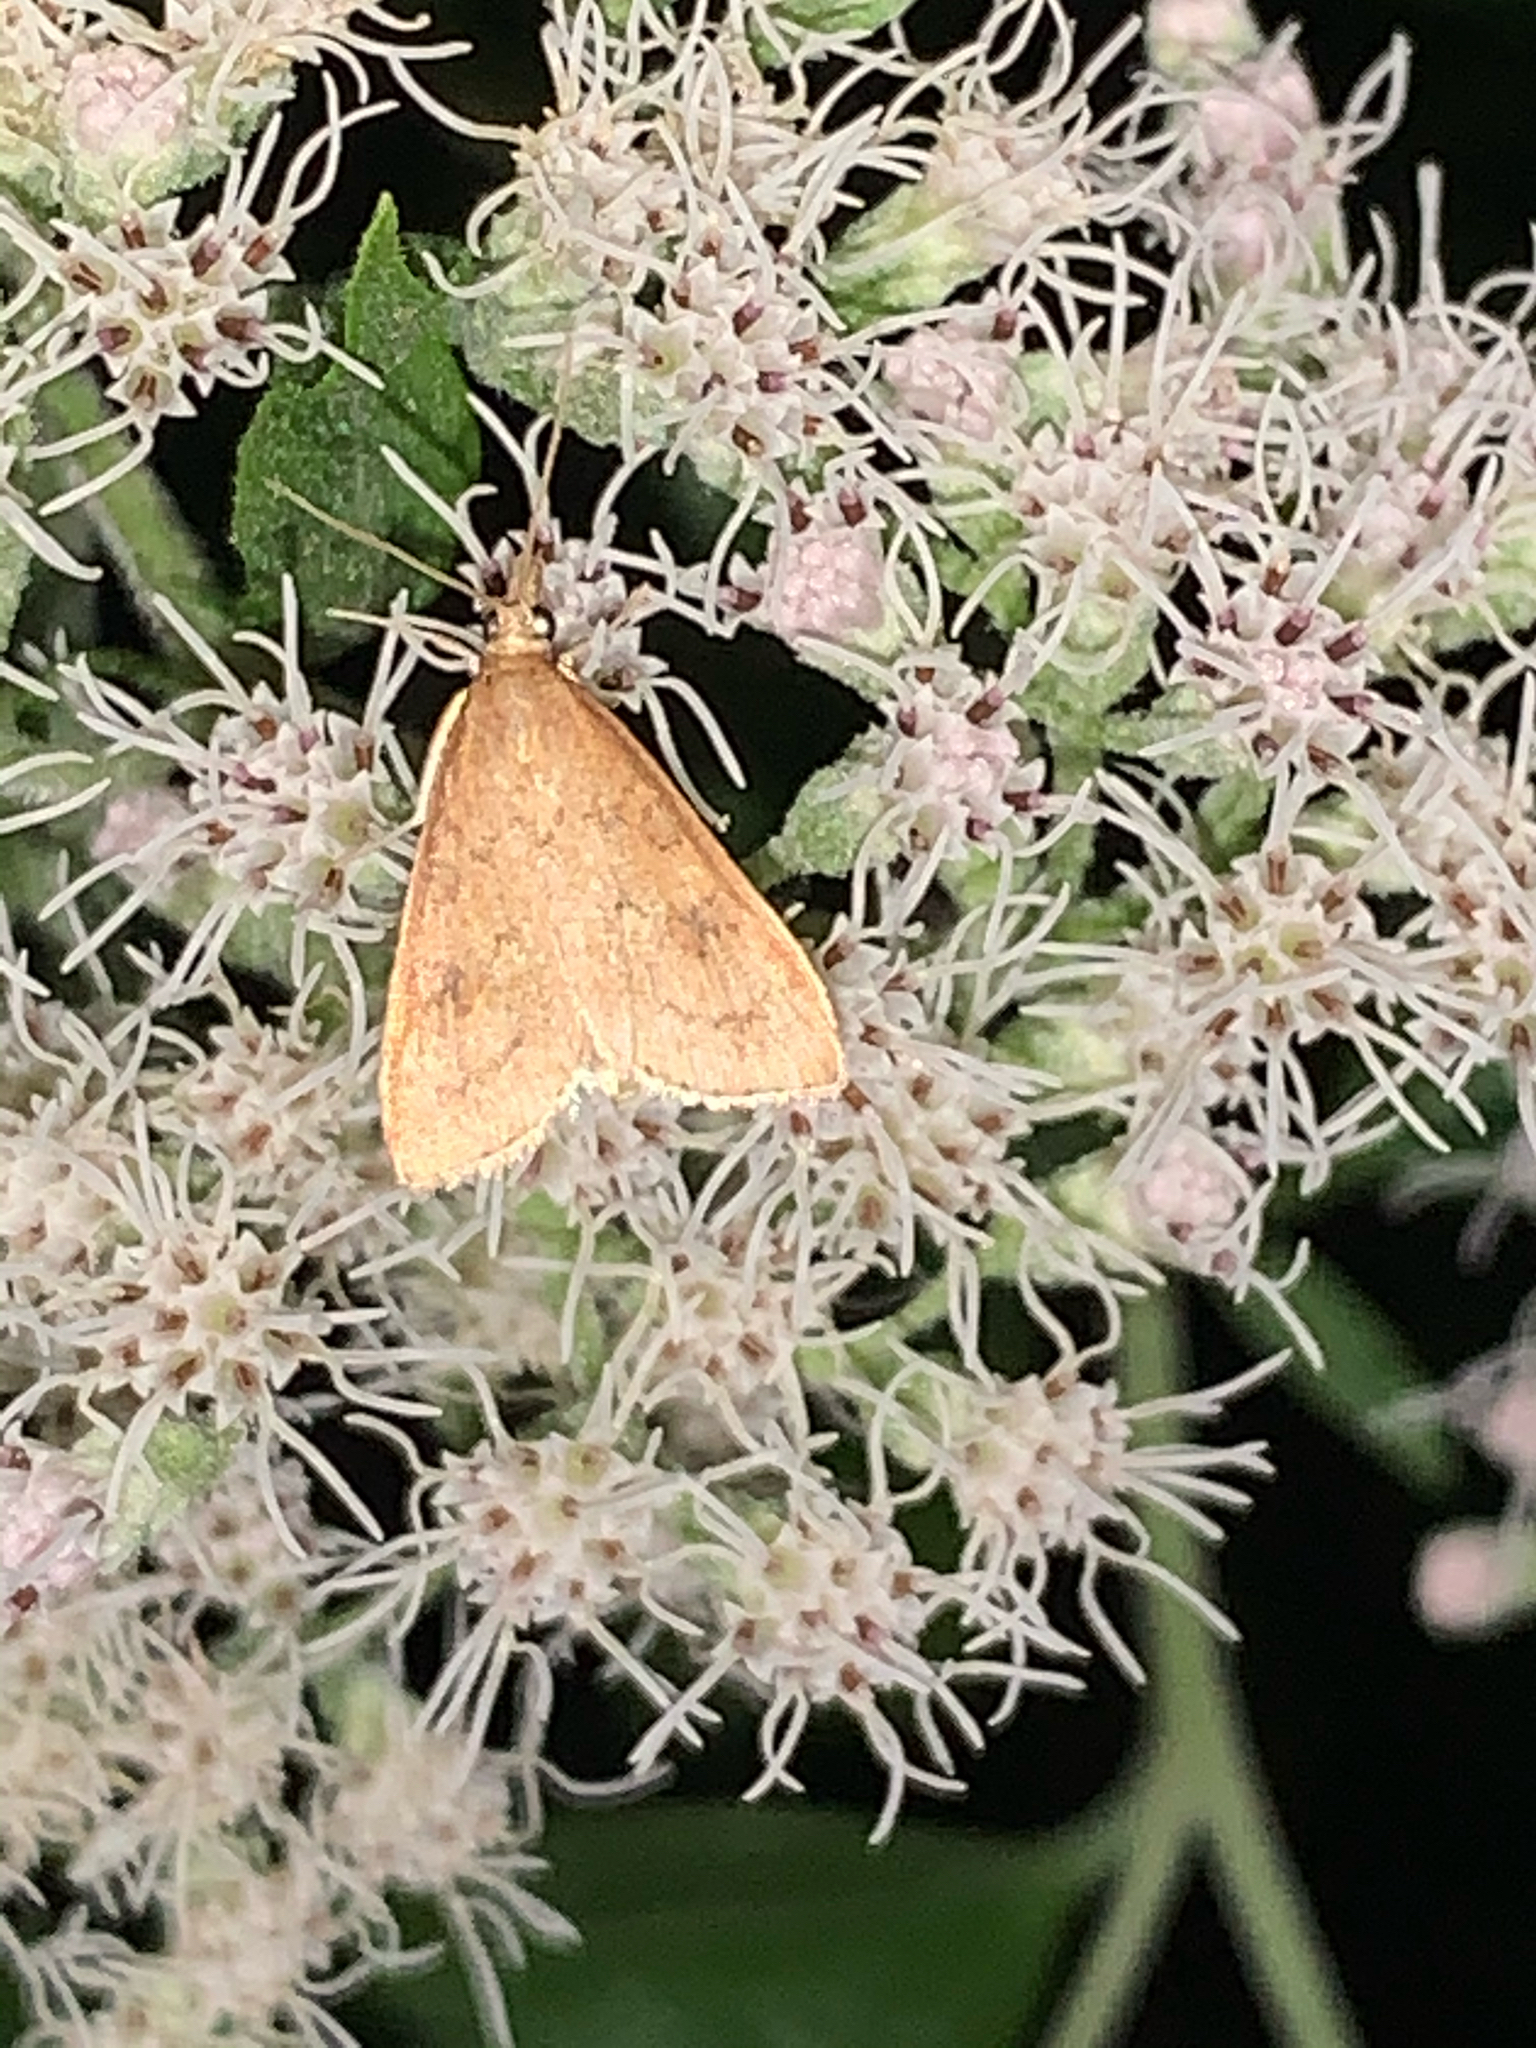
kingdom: Animalia
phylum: Arthropoda
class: Insecta
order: Lepidoptera
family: Crambidae
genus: Udea
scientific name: Udea rubigalis
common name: Celery leaftier moth
